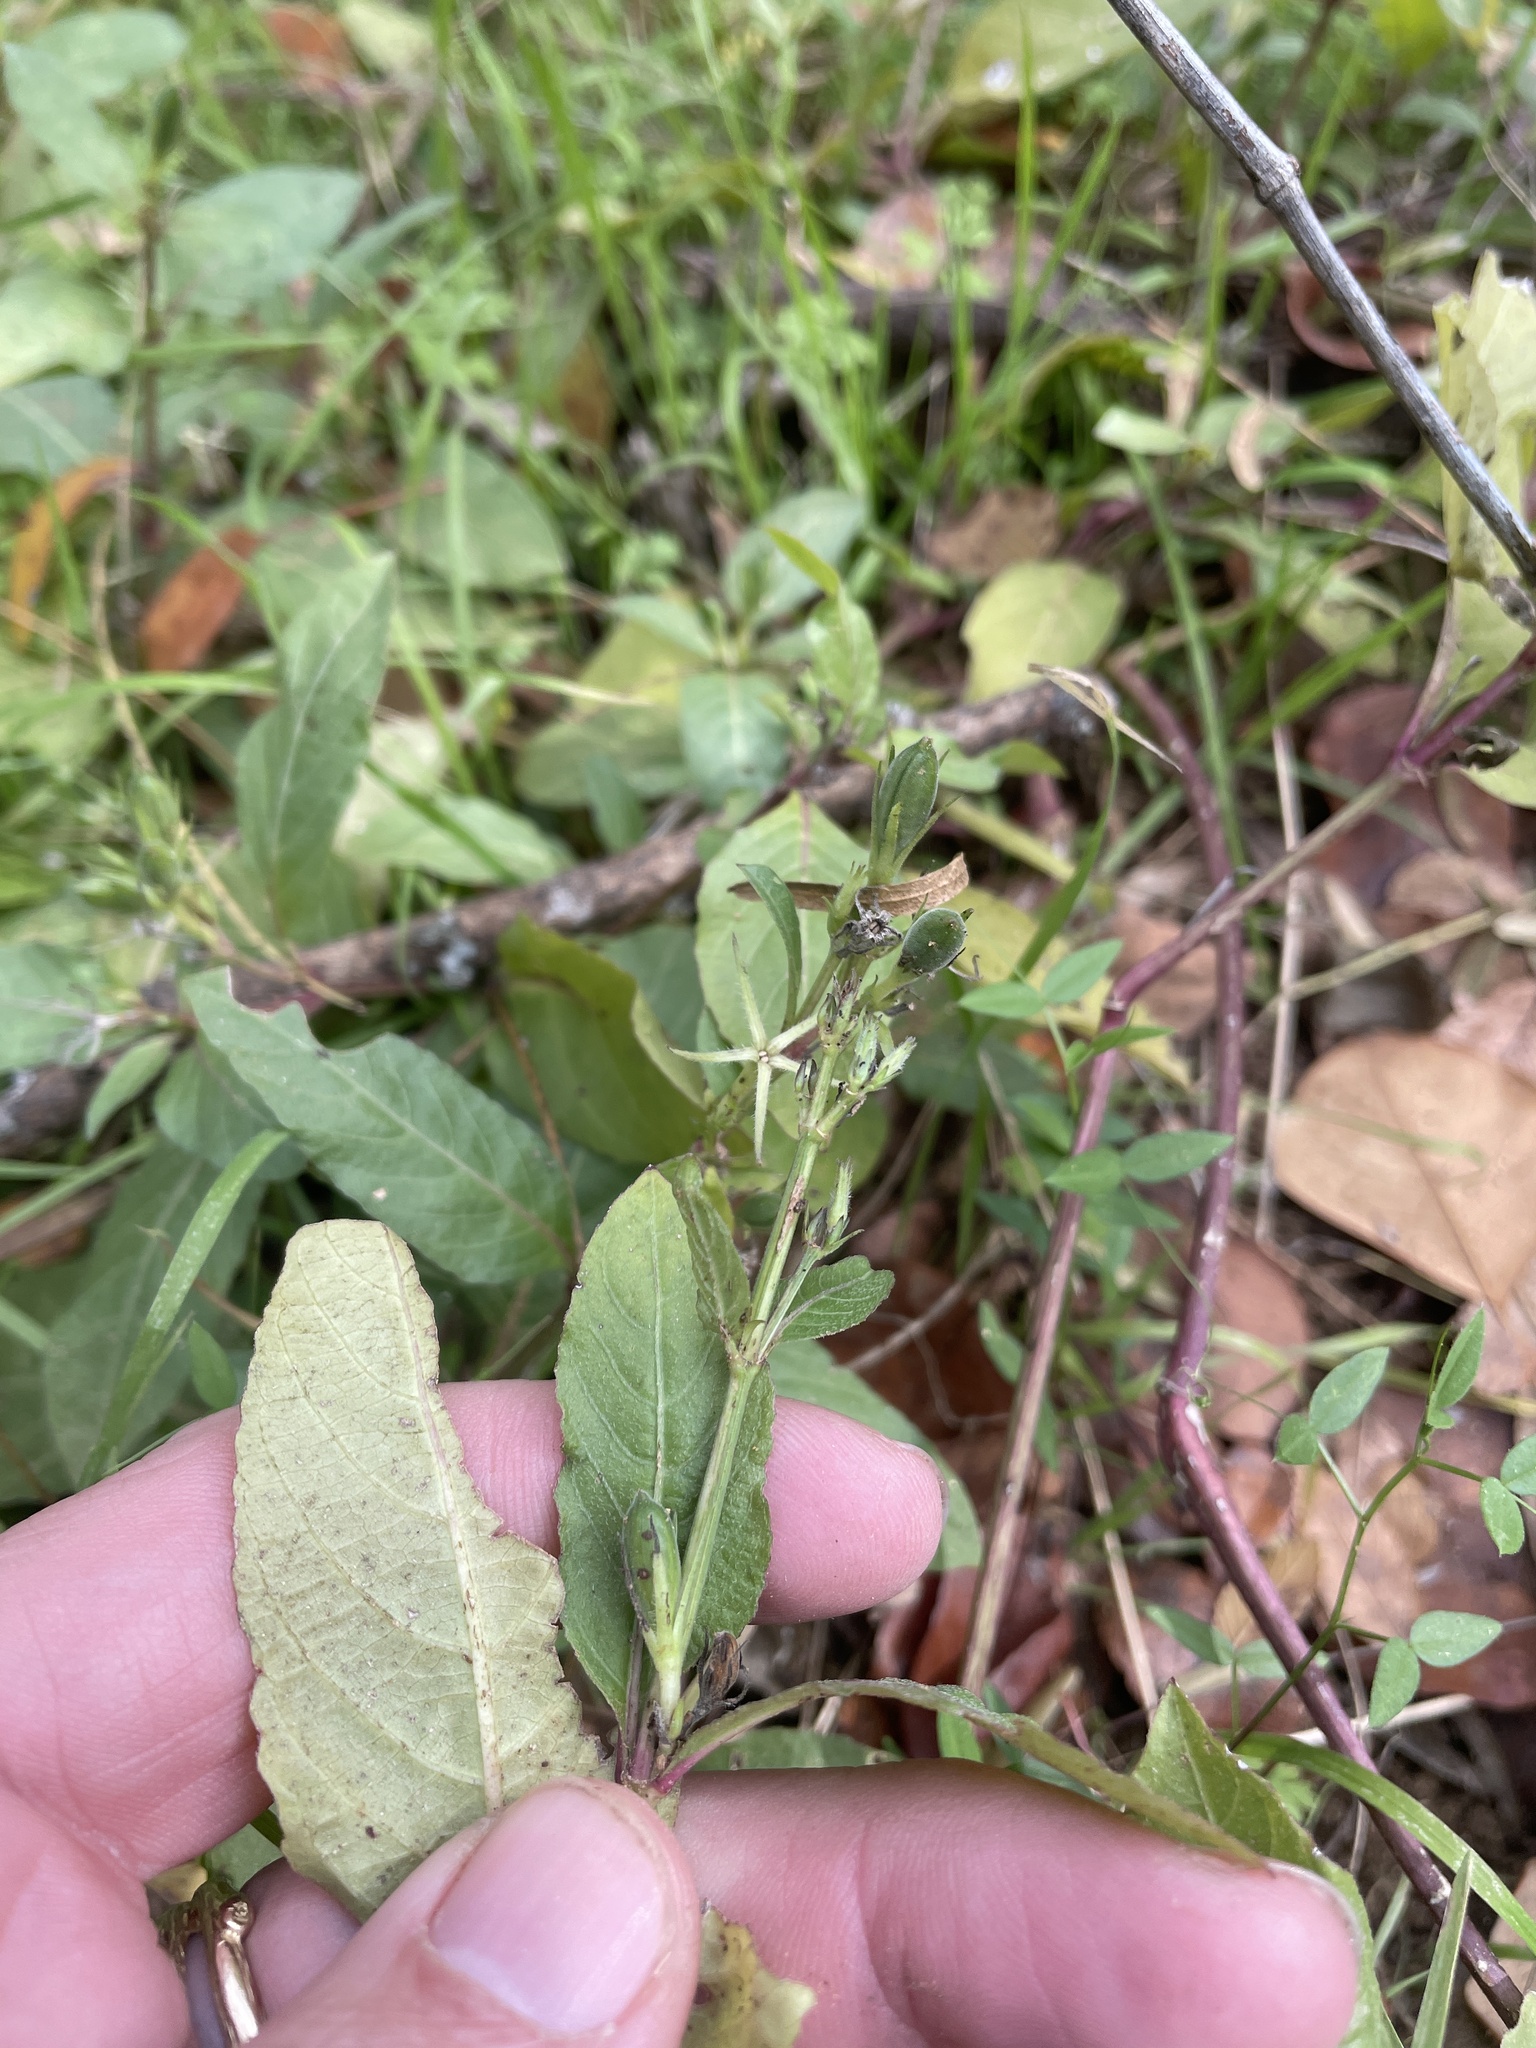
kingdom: Plantae
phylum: Tracheophyta
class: Magnoliopsida
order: Lamiales
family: Acanthaceae
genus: Ruellia
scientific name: Ruellia ciliatiflora
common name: Hairyflower wild petunia
